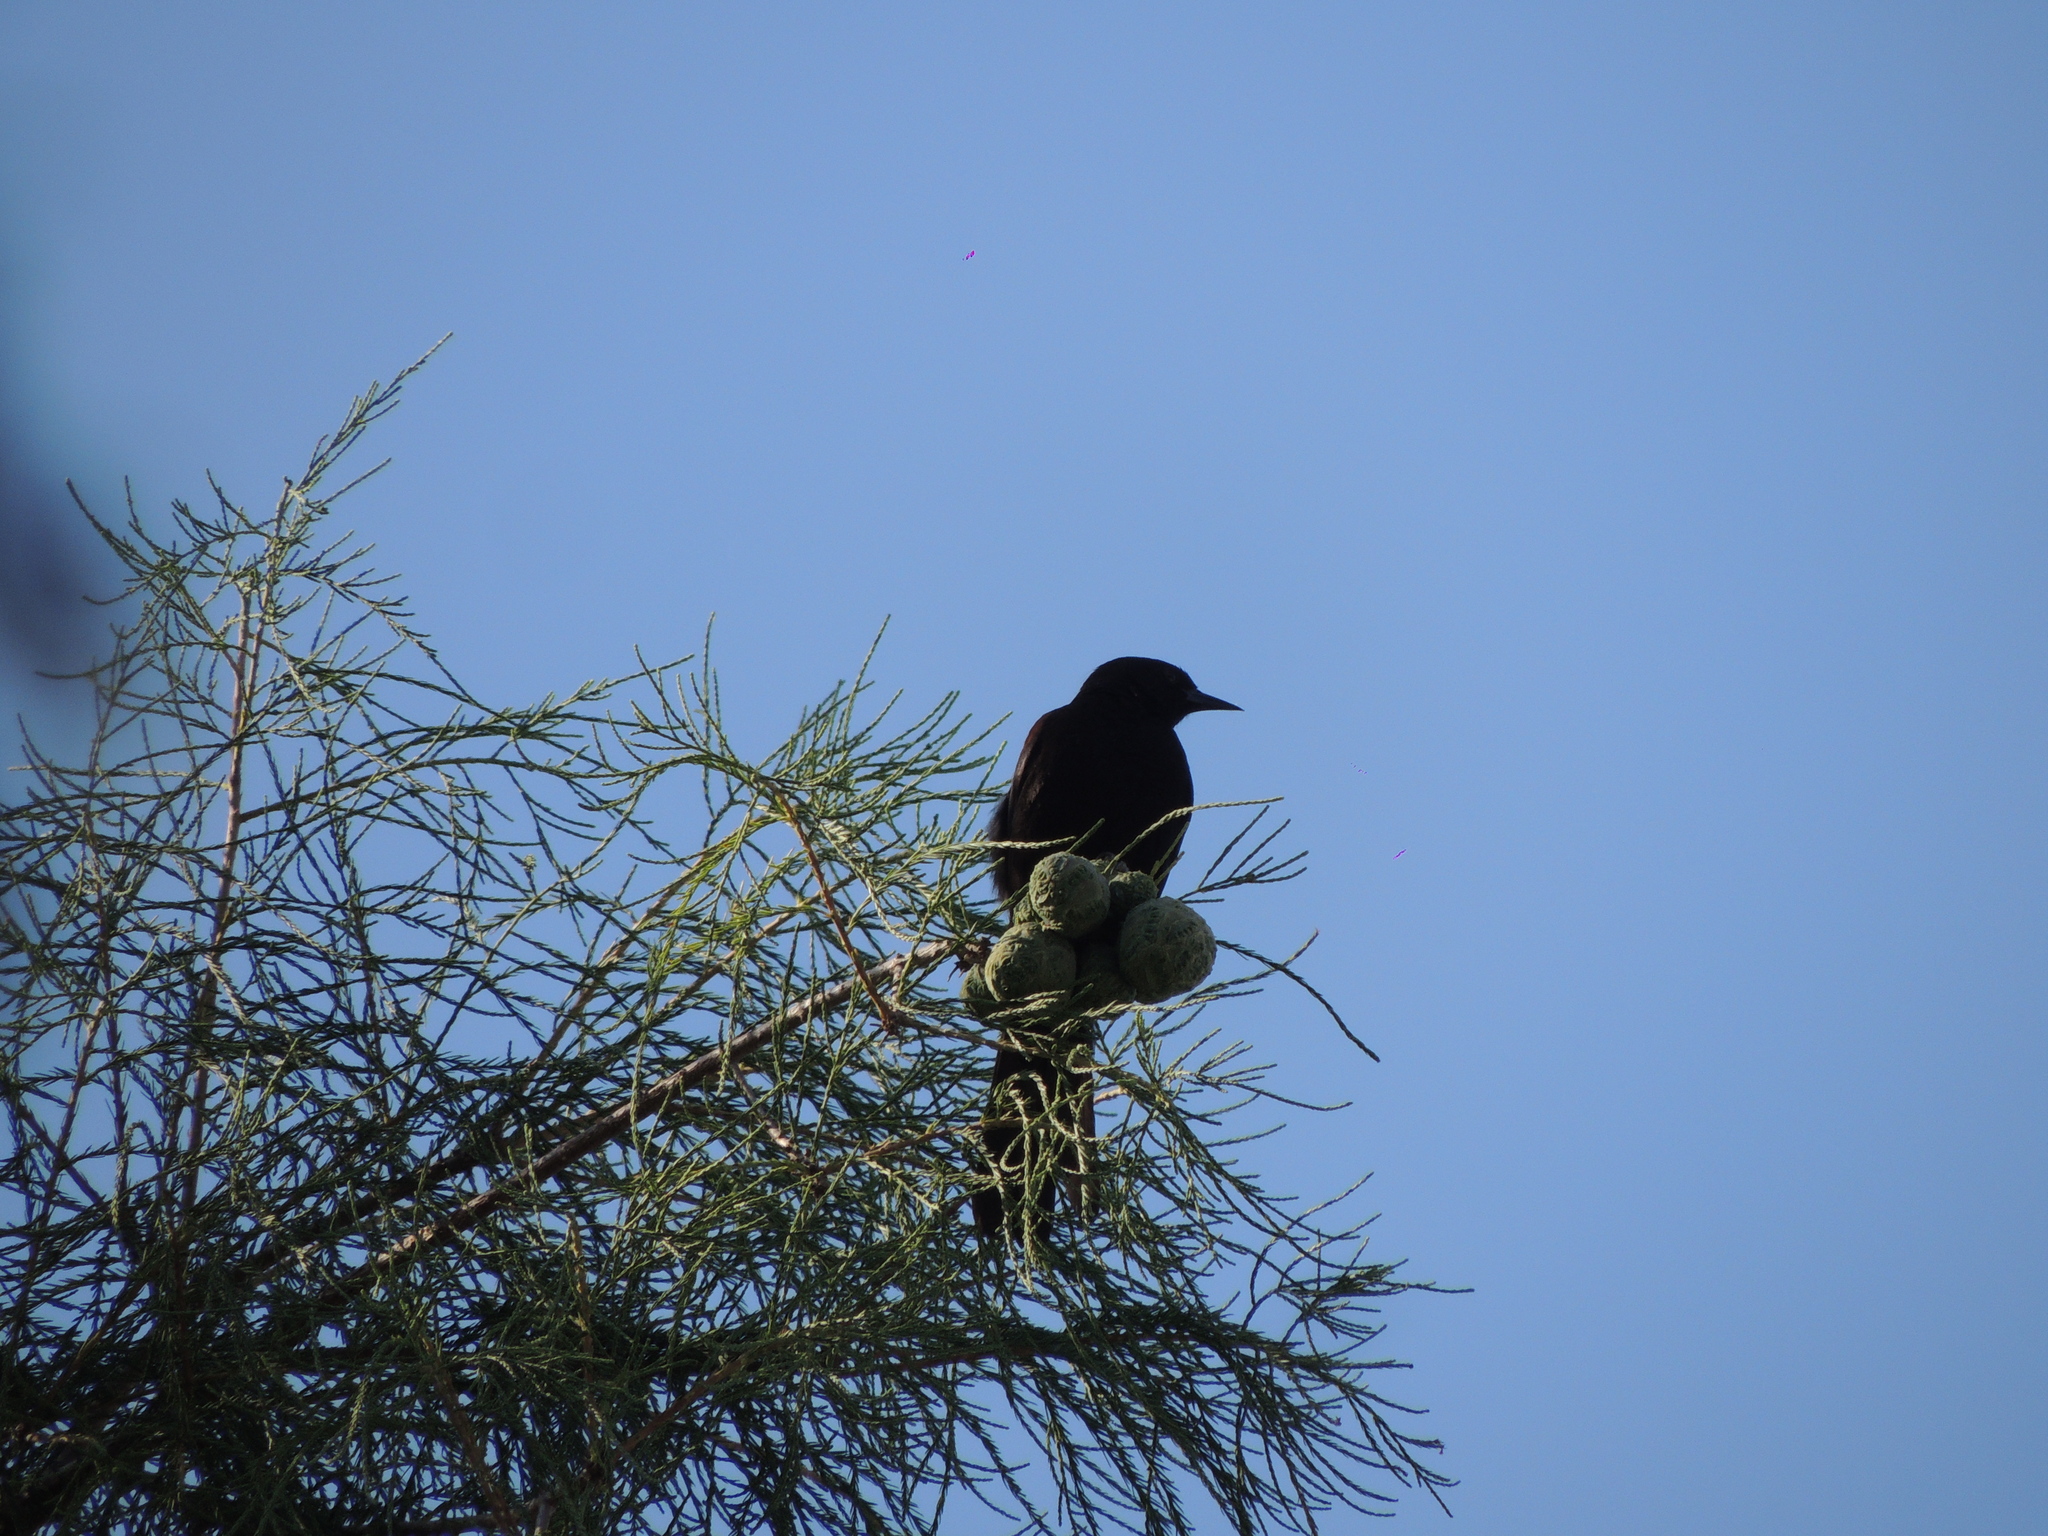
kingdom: Animalia
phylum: Chordata
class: Aves
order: Passeriformes
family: Icteridae
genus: Icterus
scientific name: Icterus cayanensis
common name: Epaulet oriole
